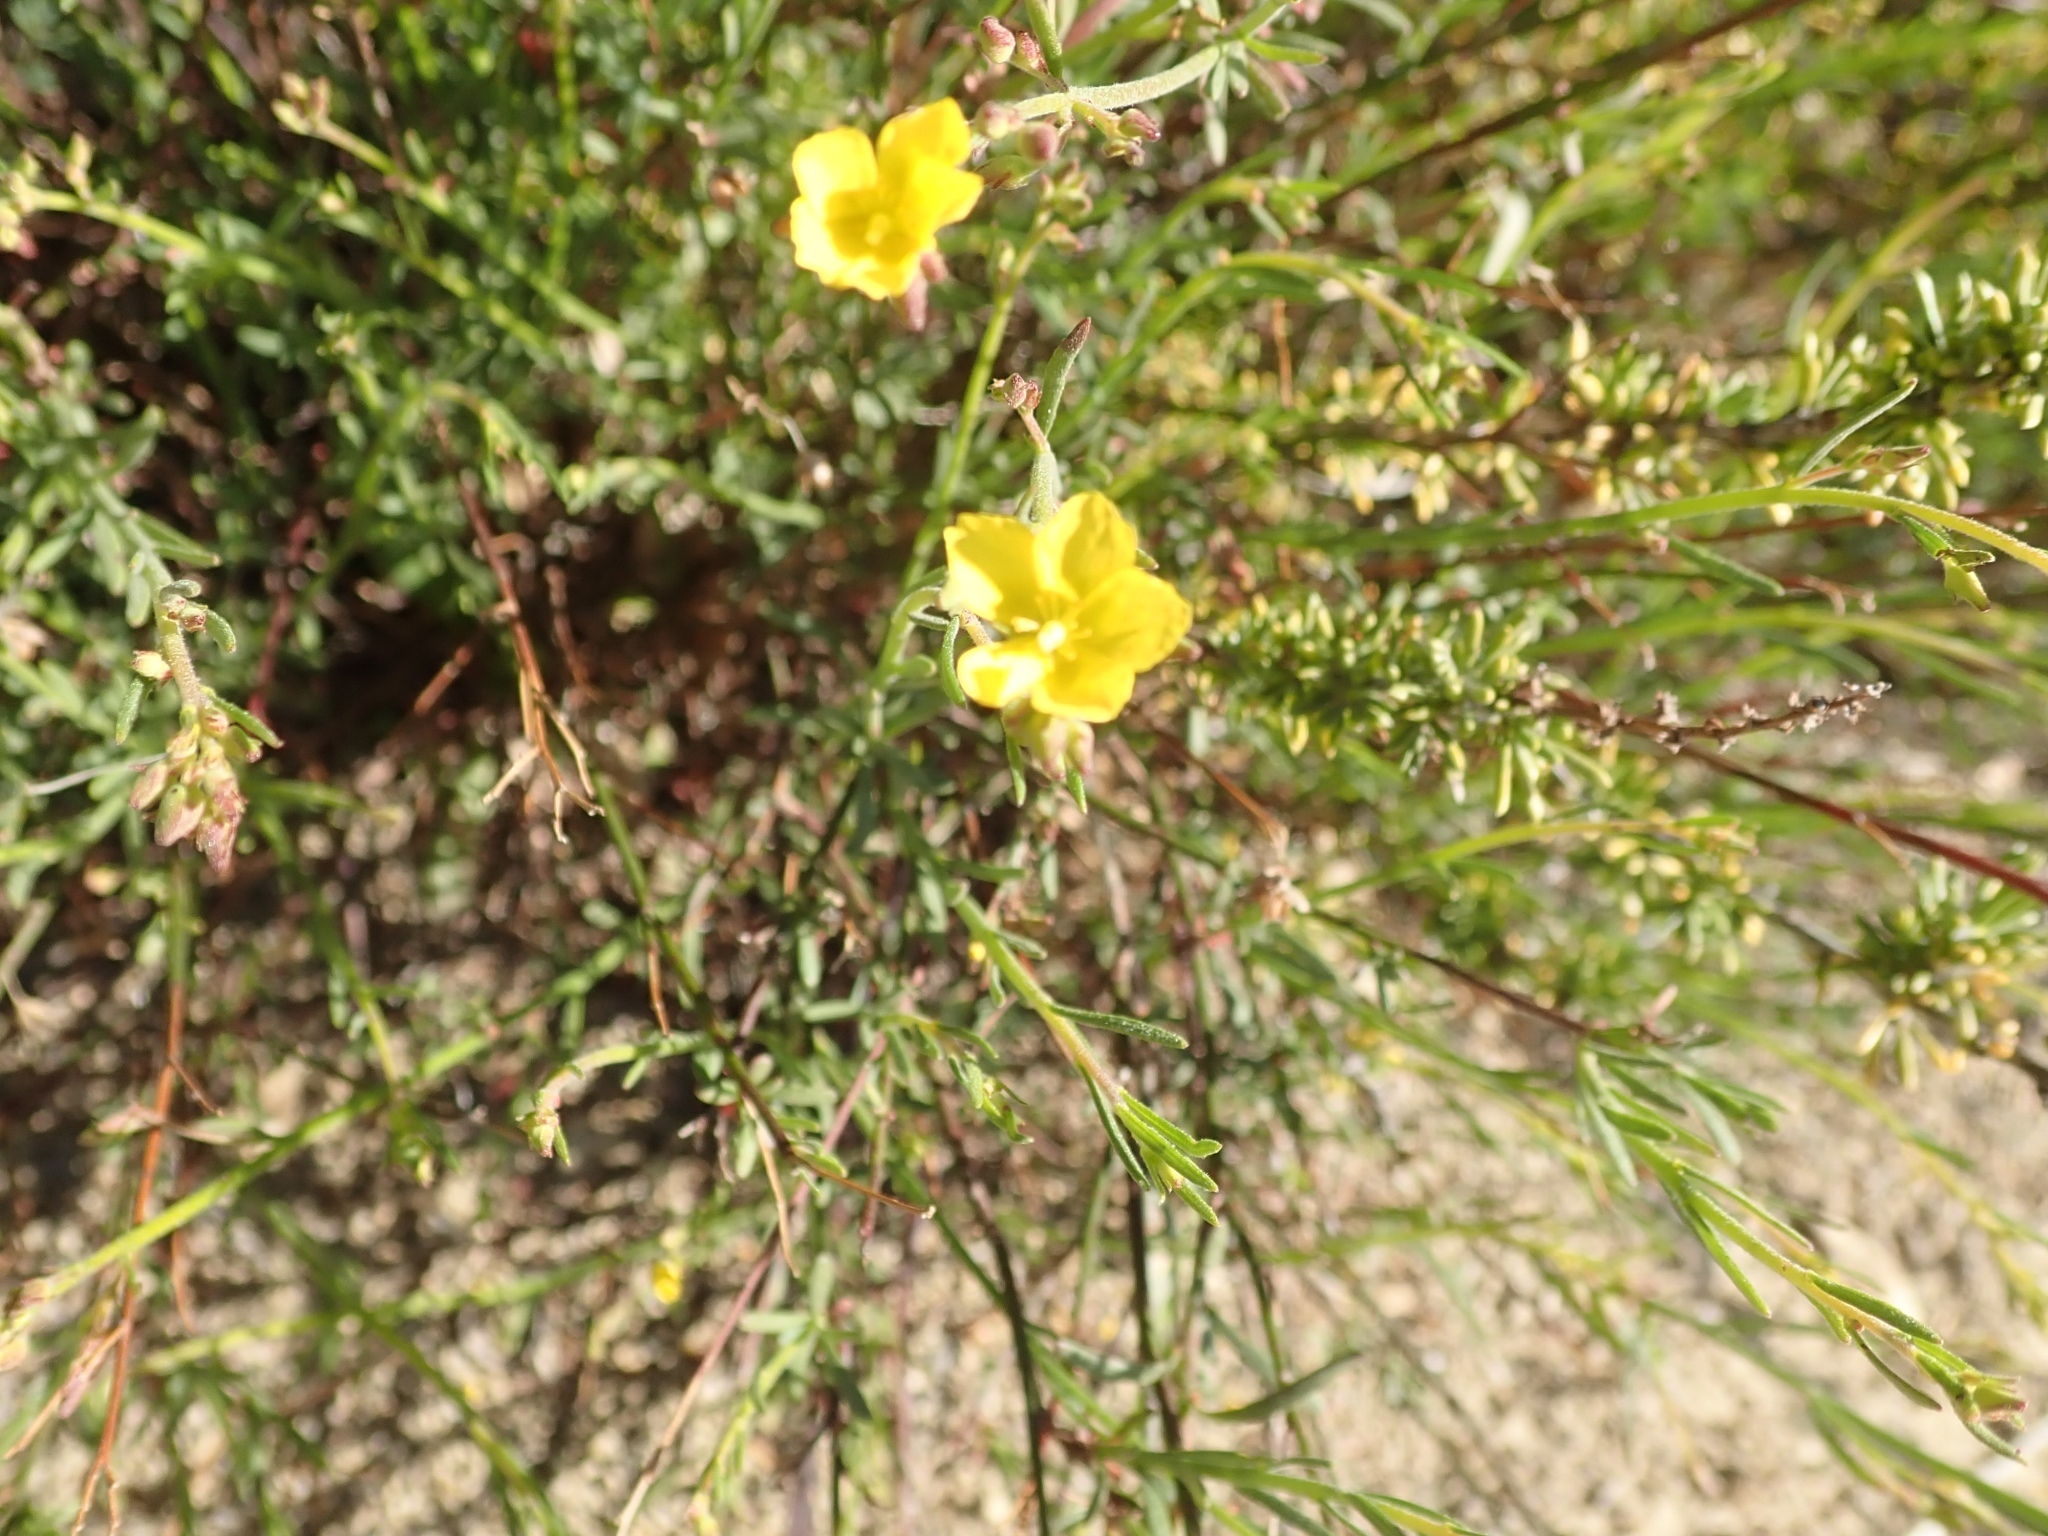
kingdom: Plantae
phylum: Tracheophyta
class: Magnoliopsida
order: Malvales
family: Cistaceae
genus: Crocanthemum
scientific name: Crocanthemum scoparium
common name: Broom-rose
